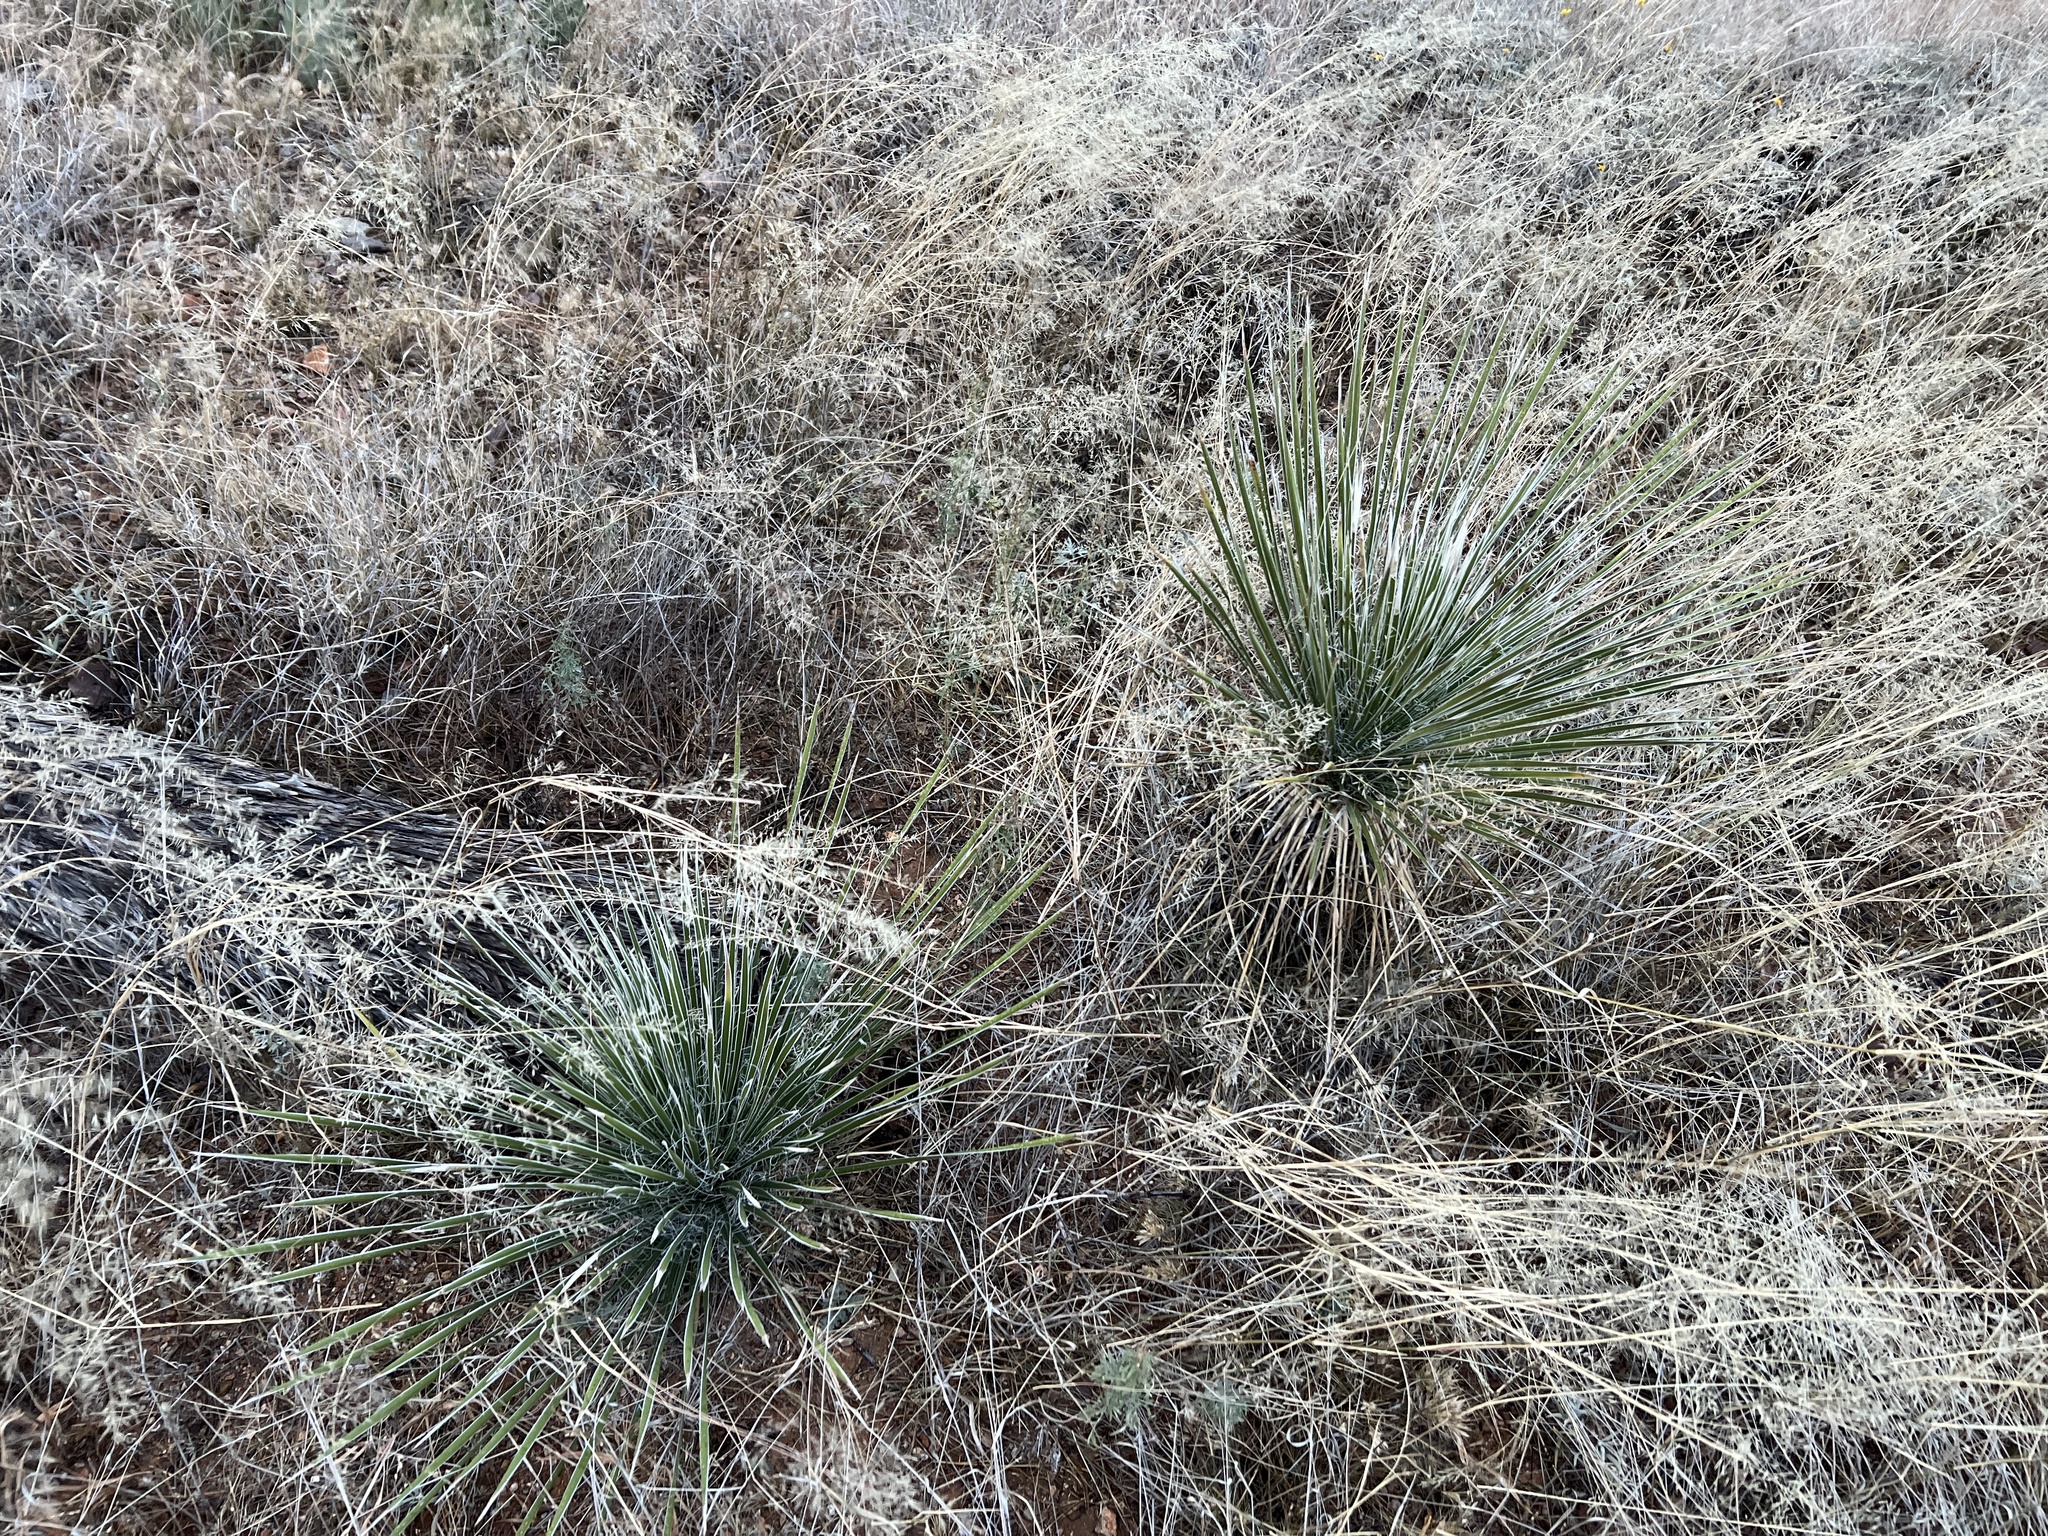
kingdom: Plantae
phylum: Tracheophyta
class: Liliopsida
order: Asparagales
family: Asparagaceae
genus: Yucca
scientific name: Yucca elata
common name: Palmella
